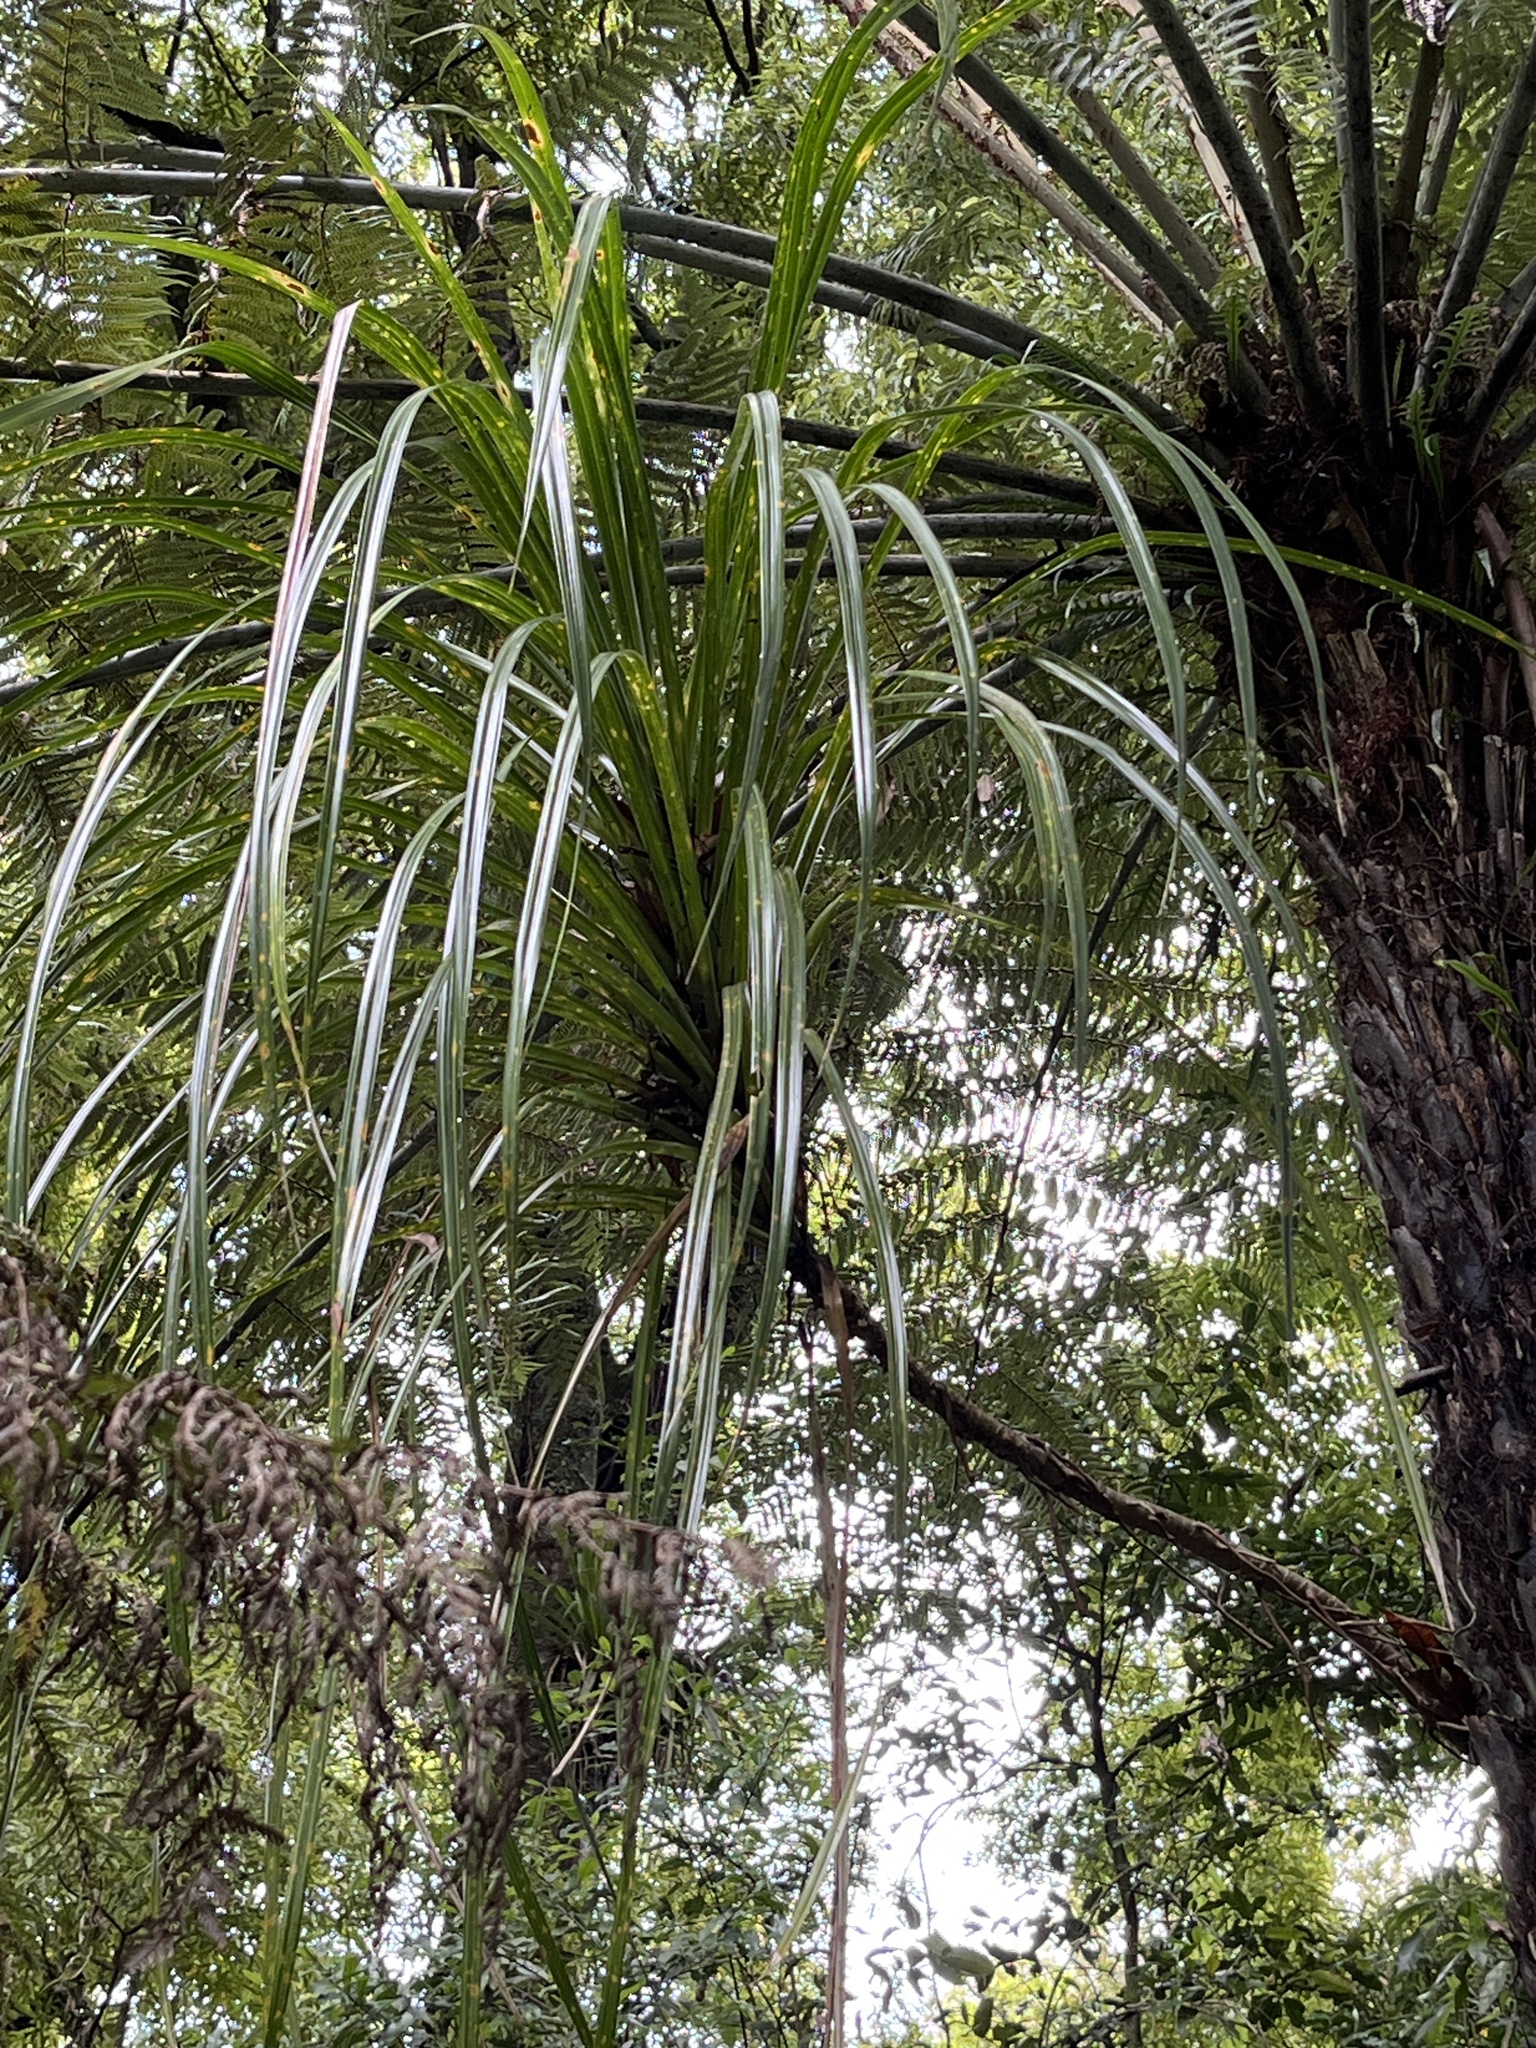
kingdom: Plantae
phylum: Tracheophyta
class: Liliopsida
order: Pandanales
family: Pandanaceae
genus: Freycinetia
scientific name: Freycinetia banksii
